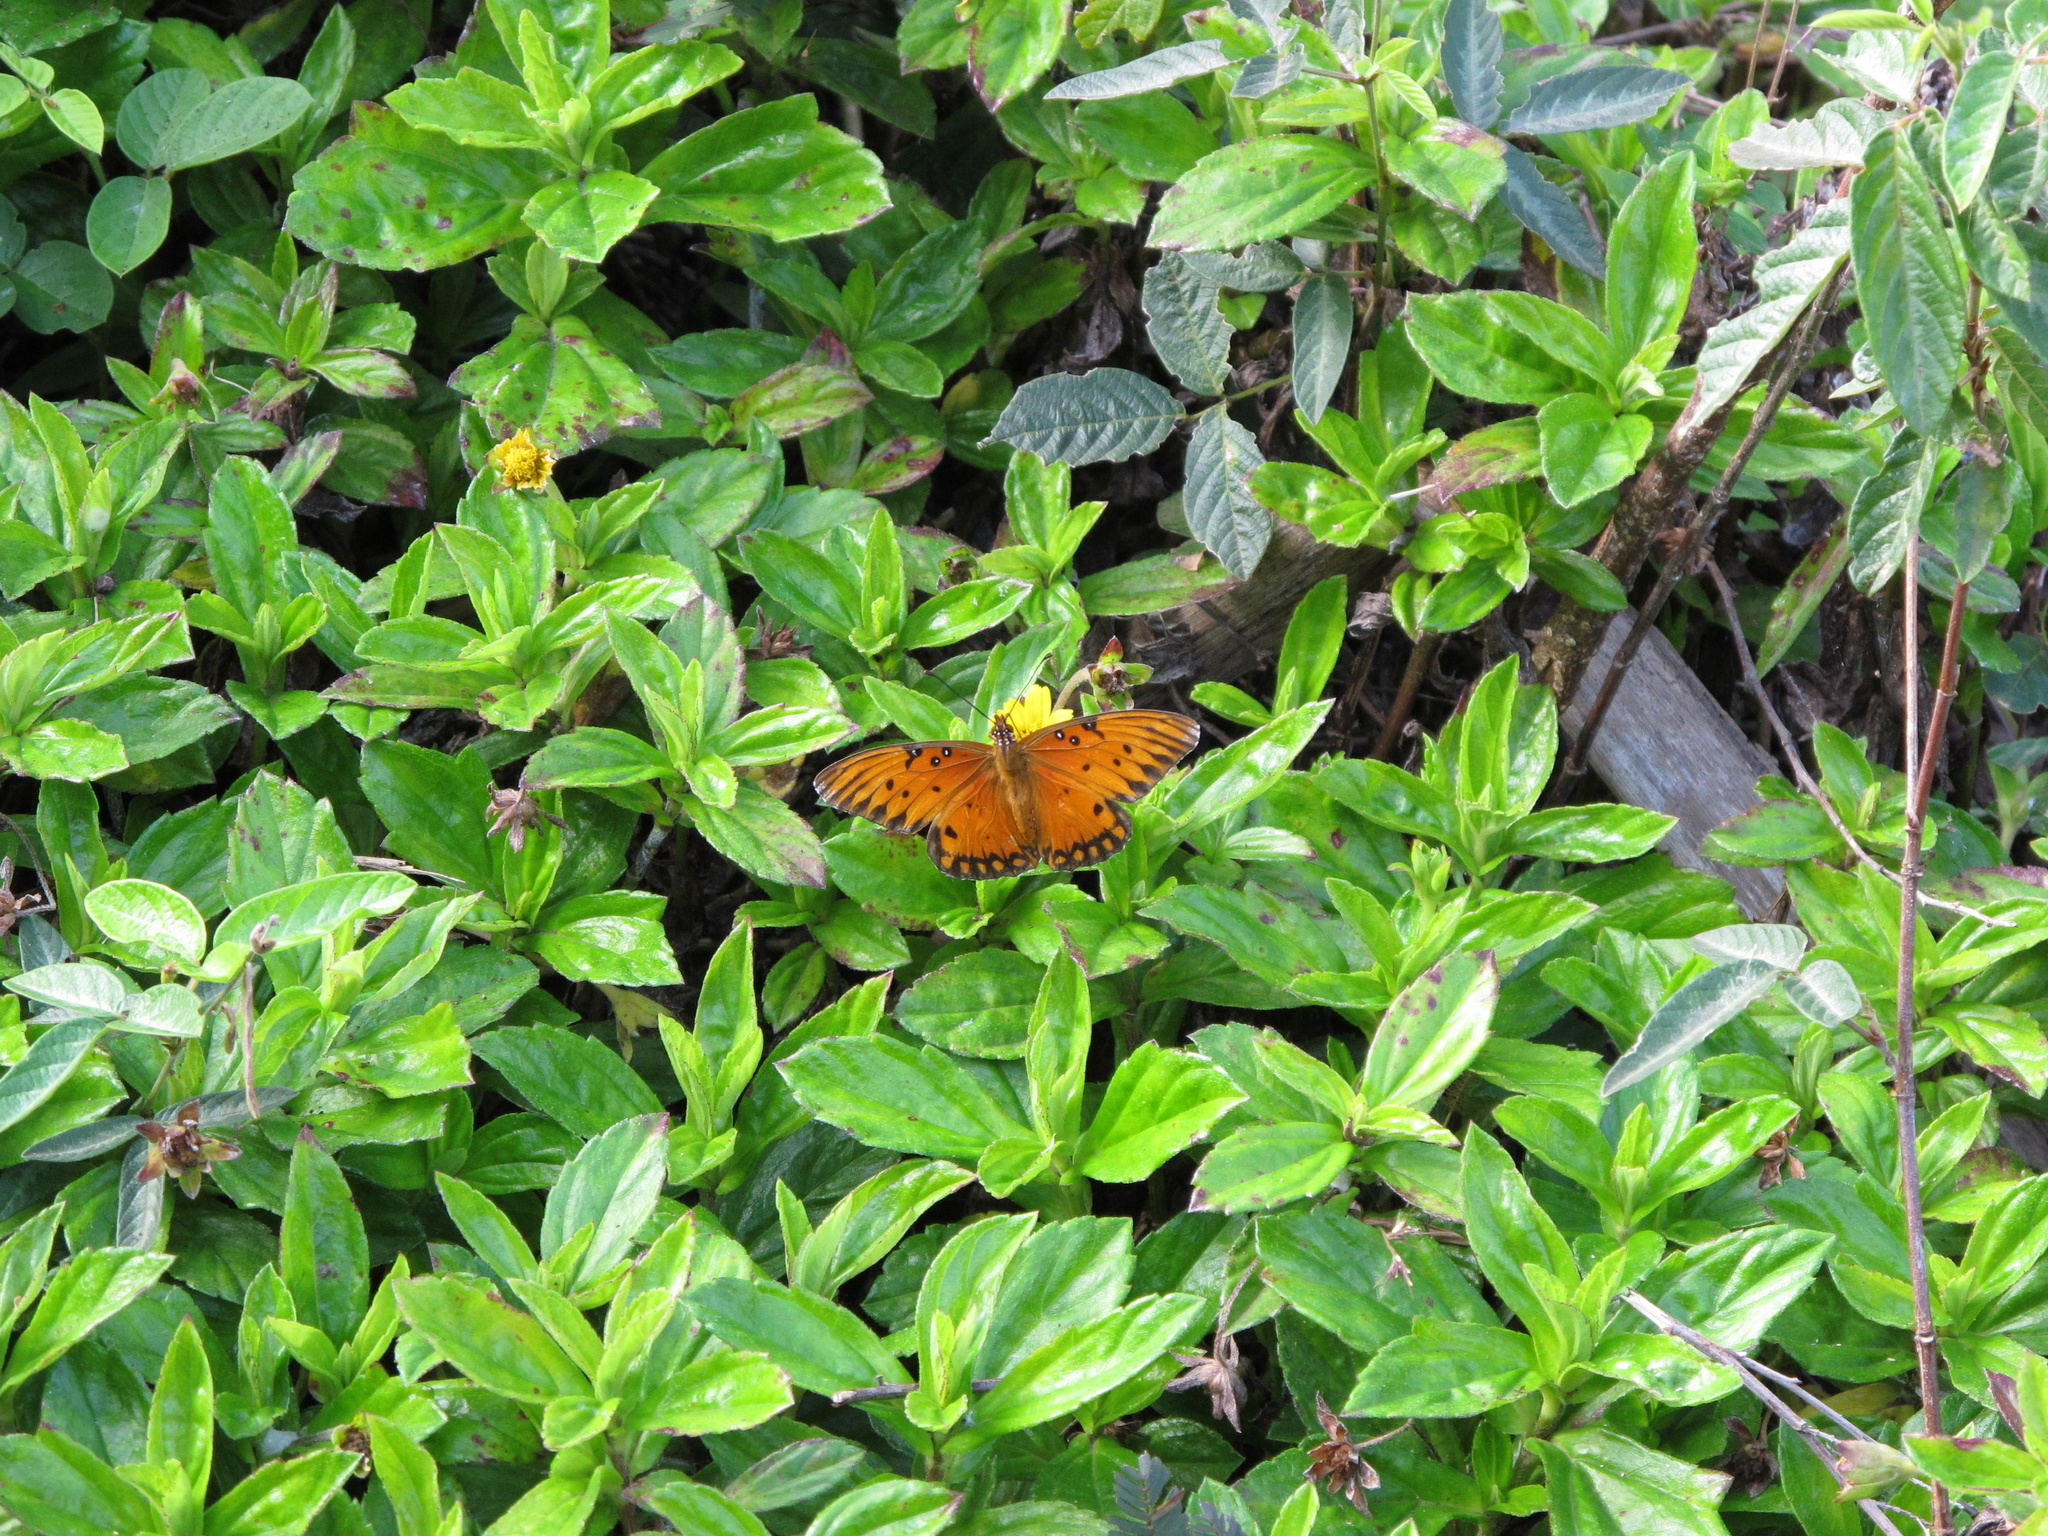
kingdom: Animalia
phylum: Arthropoda
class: Insecta
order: Lepidoptera
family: Nymphalidae
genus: Dione
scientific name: Dione vanillae
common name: Gulf fritillary
